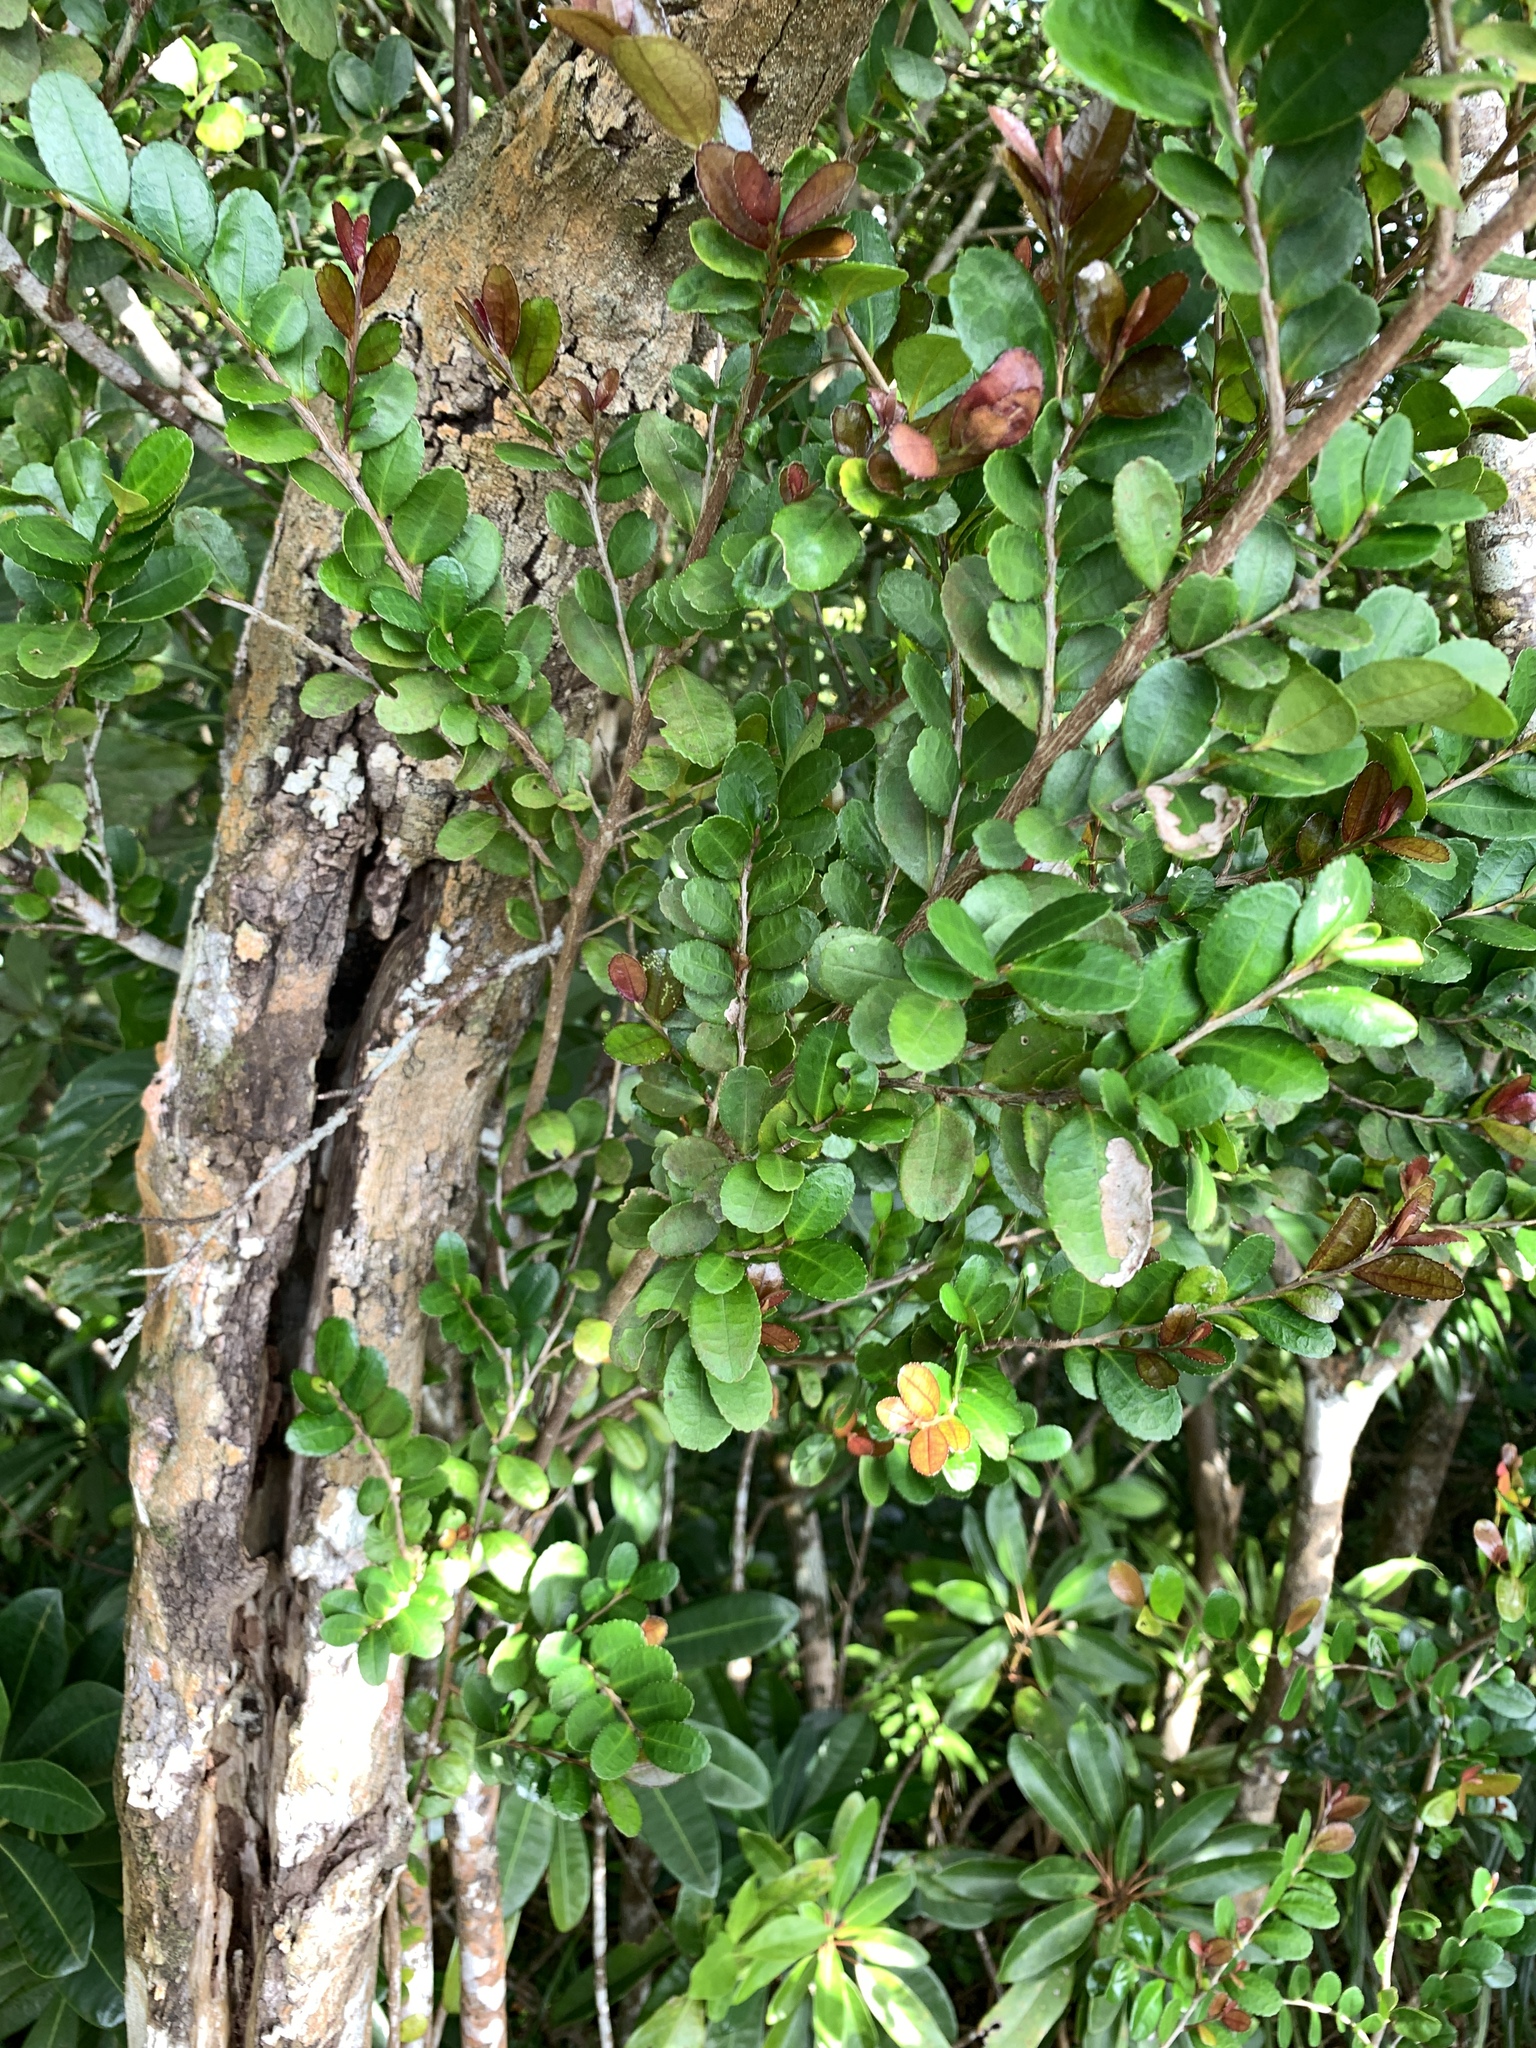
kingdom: Plantae
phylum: Tracheophyta
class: Magnoliopsida
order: Ericales
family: Pentaphylacaceae
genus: Eurya
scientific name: Eurya emarginata
